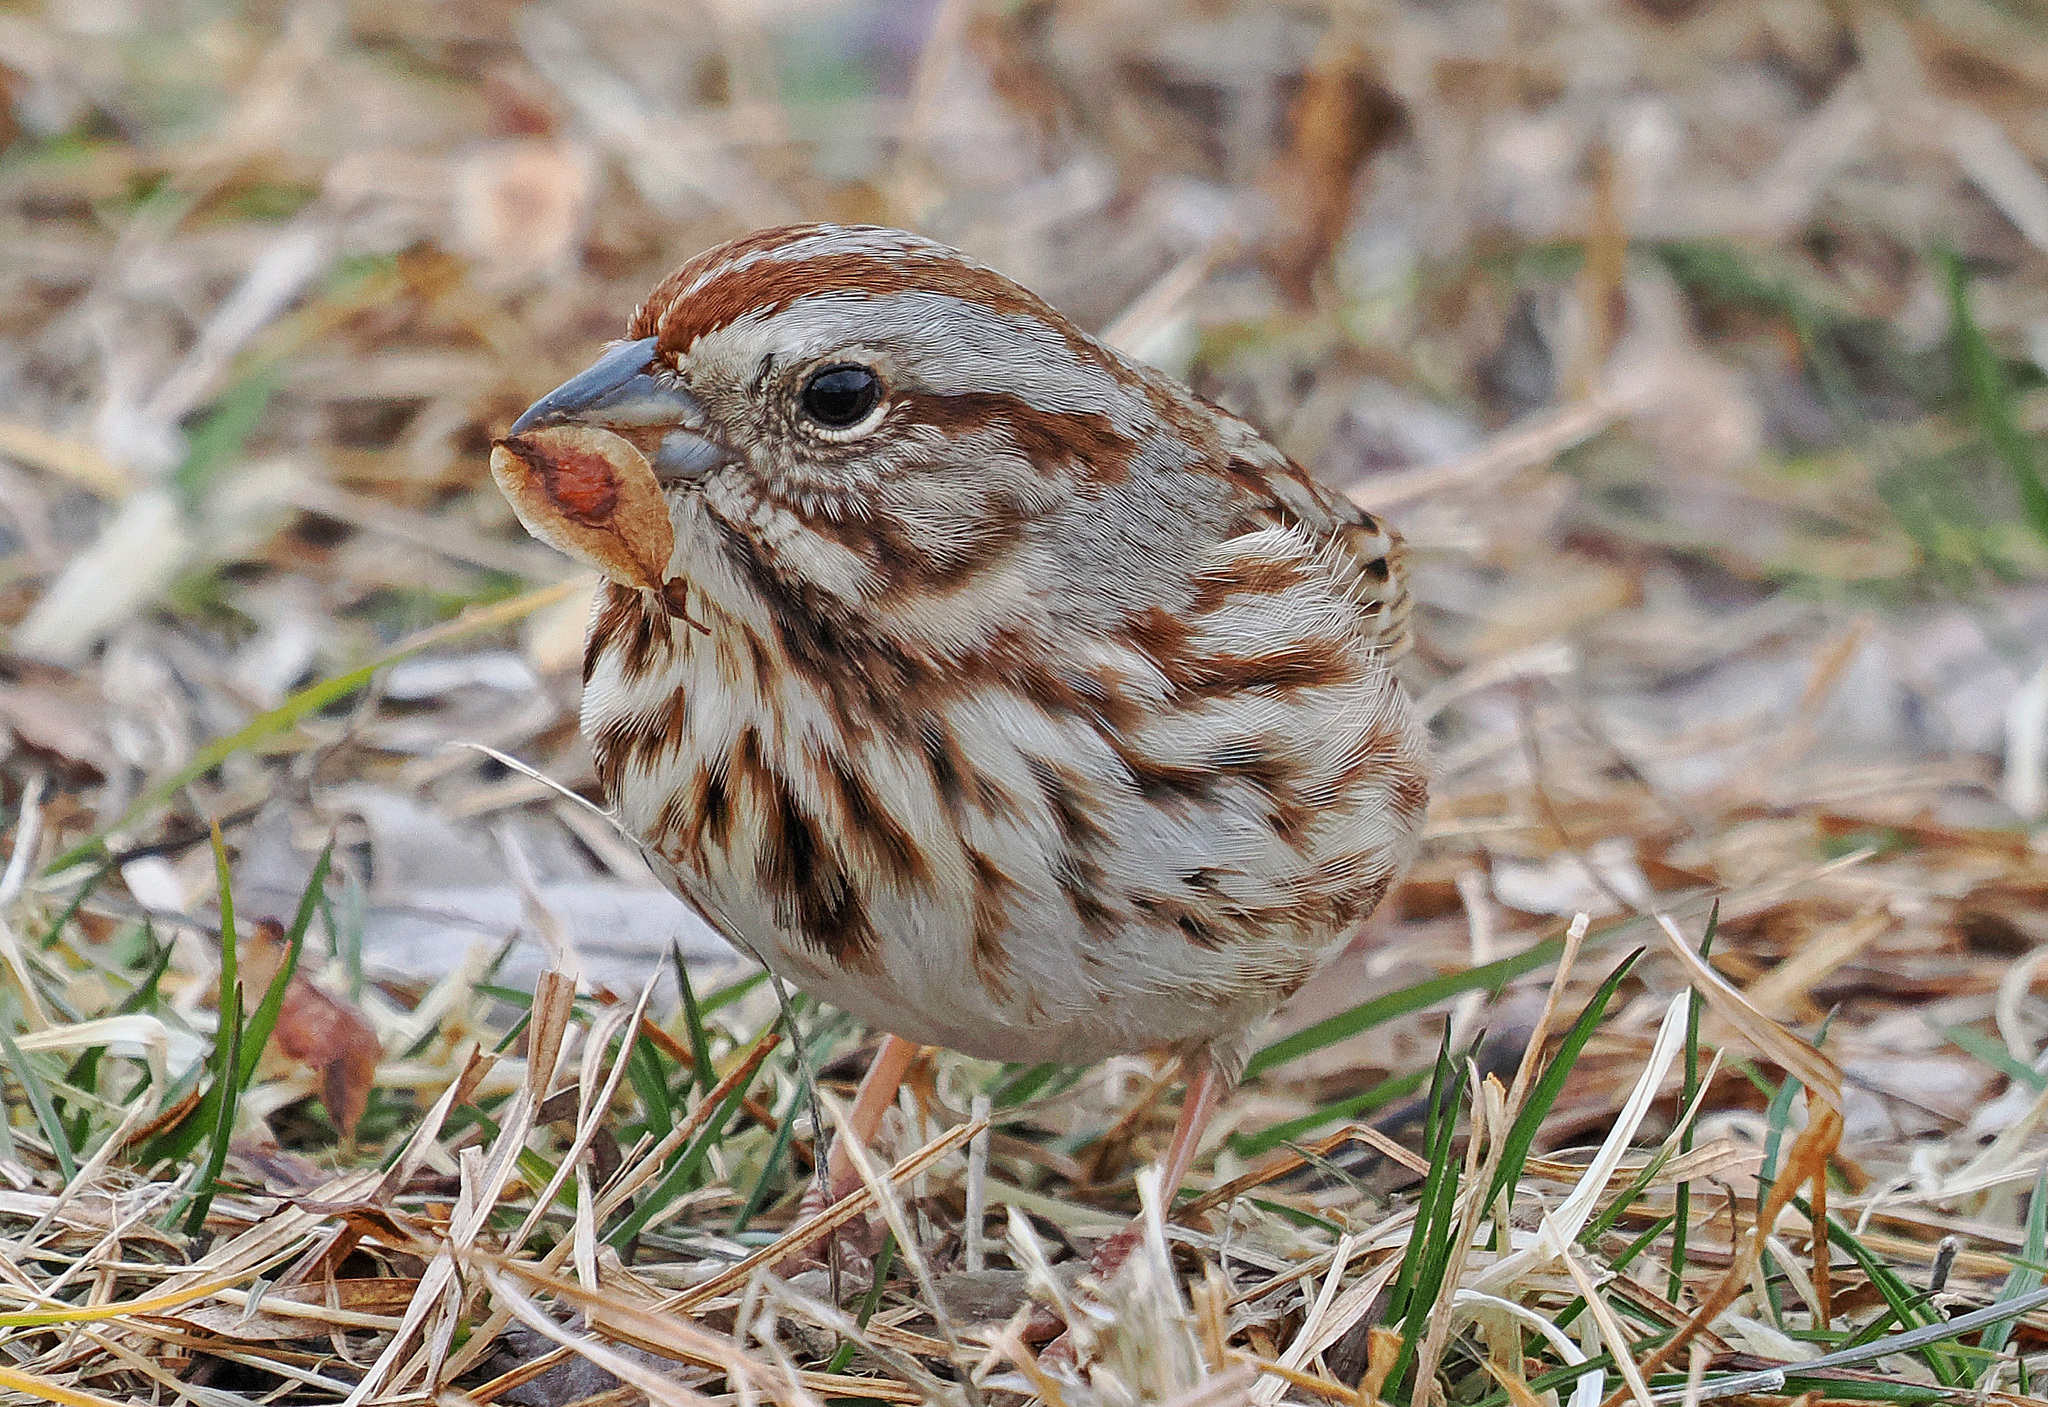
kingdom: Animalia
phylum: Chordata
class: Aves
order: Passeriformes
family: Passerellidae
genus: Melospiza
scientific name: Melospiza melodia
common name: Song sparrow
